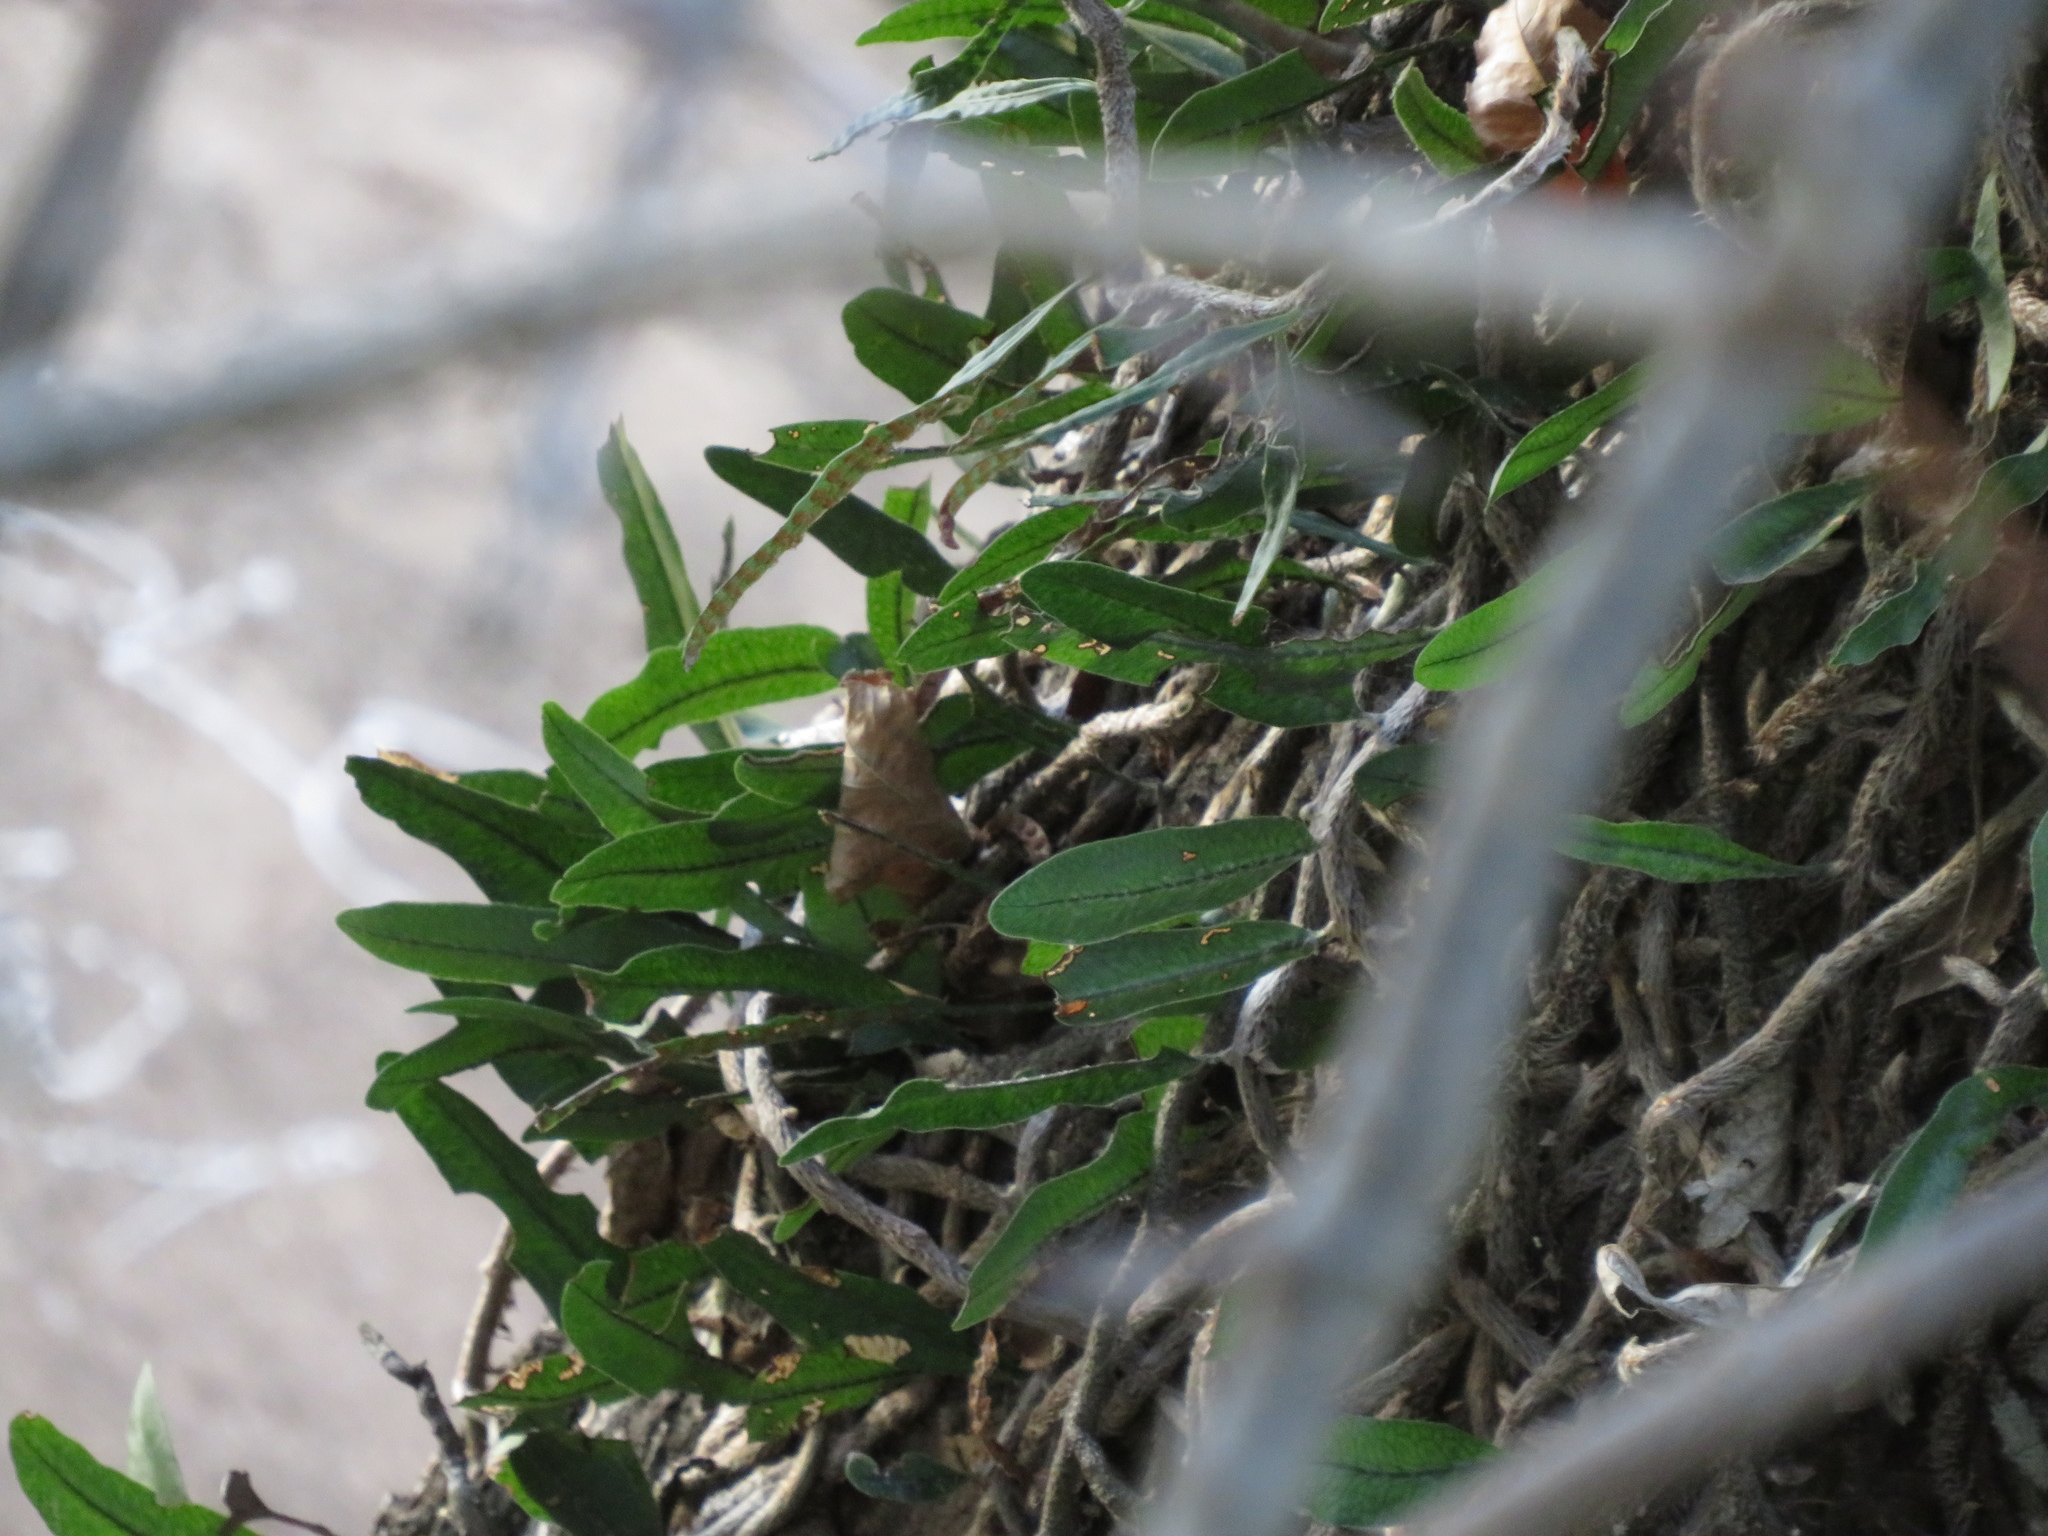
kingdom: Plantae
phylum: Tracheophyta
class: Polypodiopsida
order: Polypodiales
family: Polypodiaceae
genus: Microgramma
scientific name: Microgramma mortoniana
